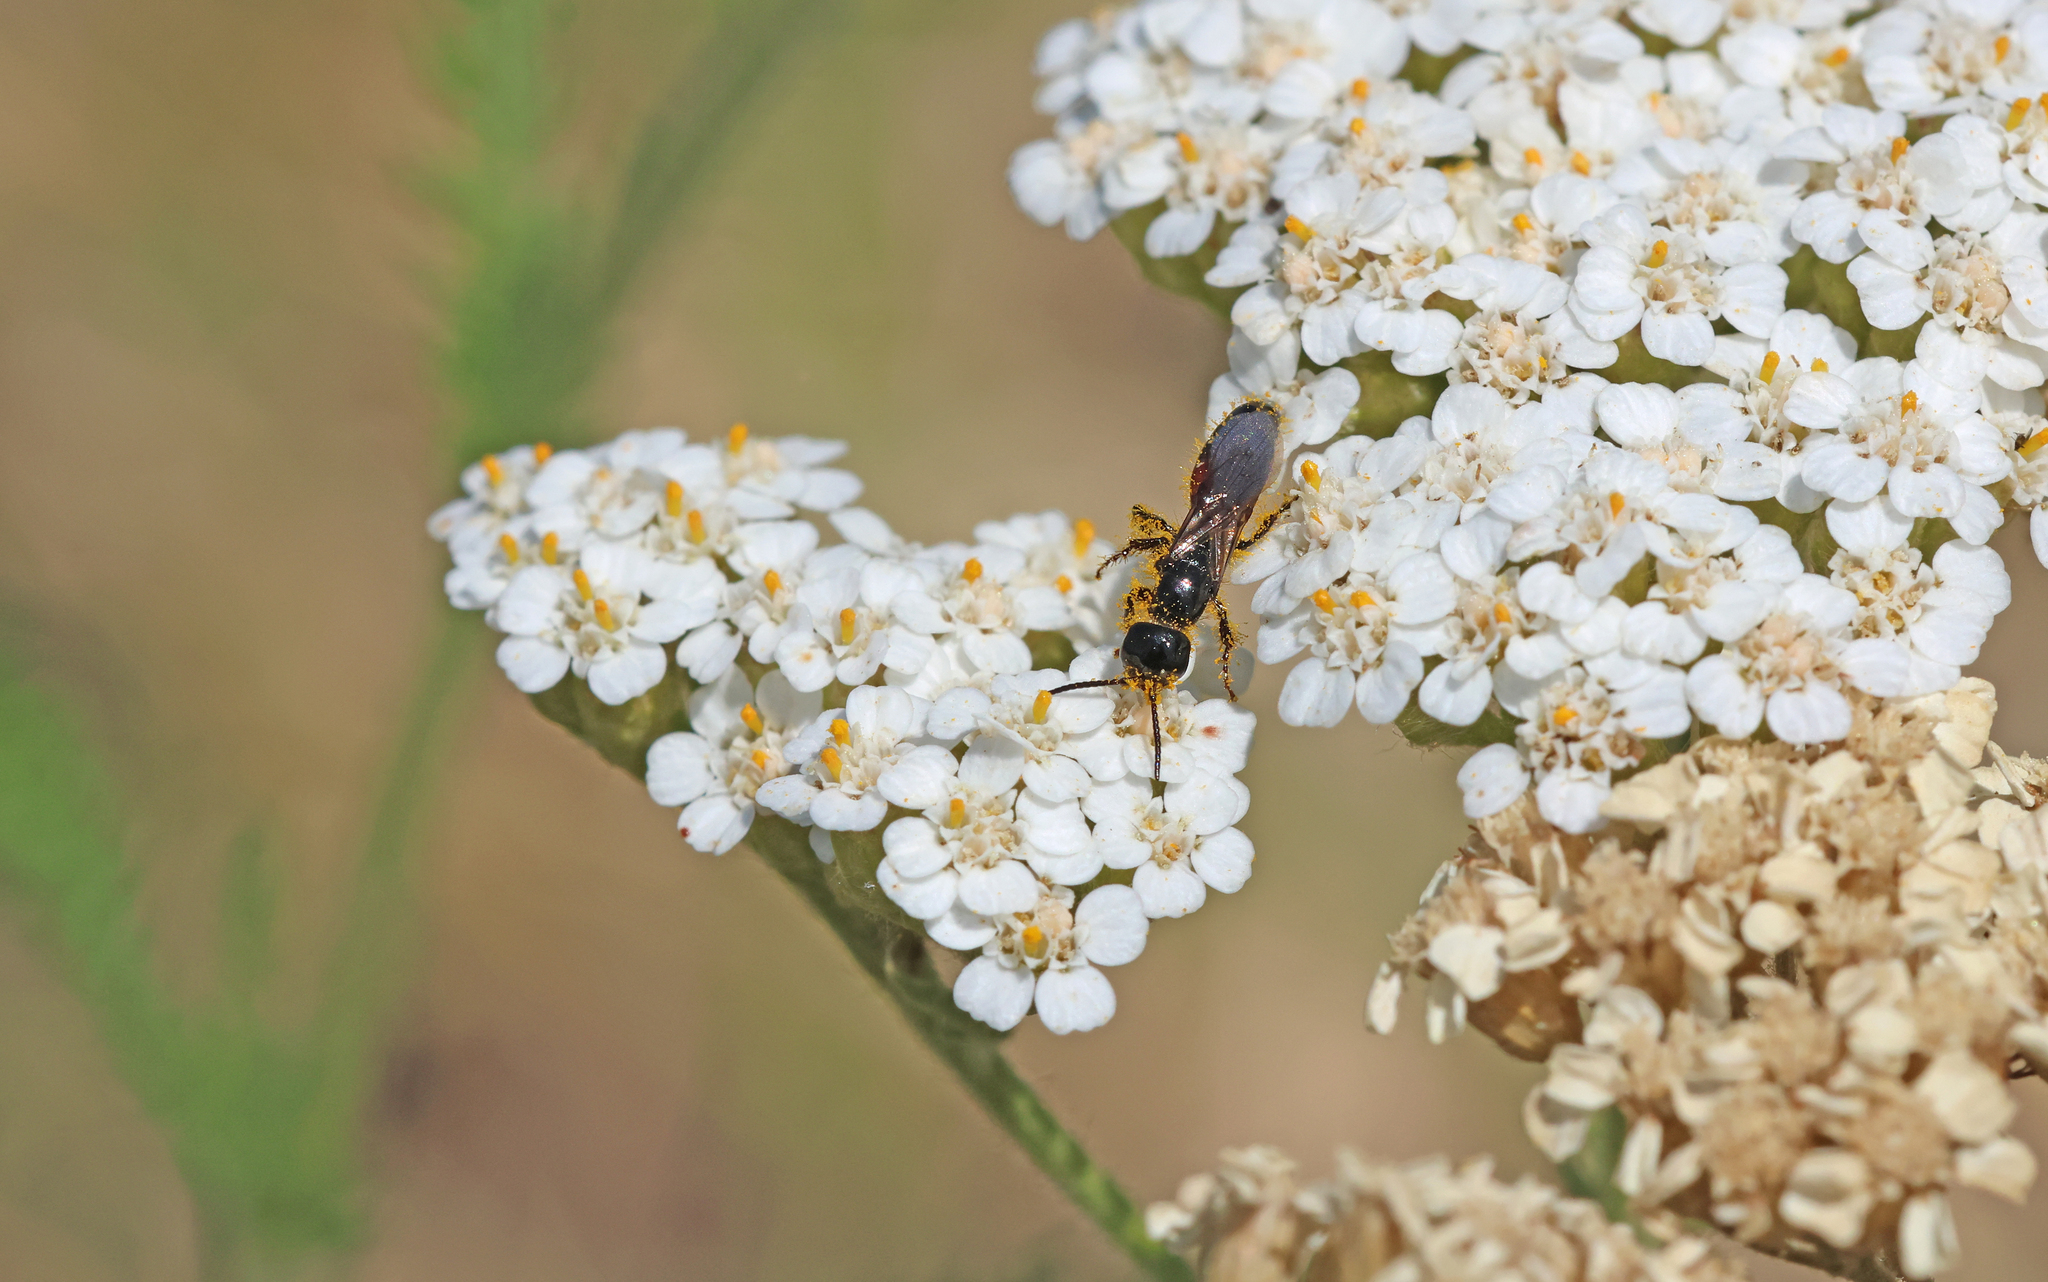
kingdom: Animalia
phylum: Arthropoda
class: Insecta
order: Hymenoptera
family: Tiphiidae
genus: Meria
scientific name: Meria tripunctata
